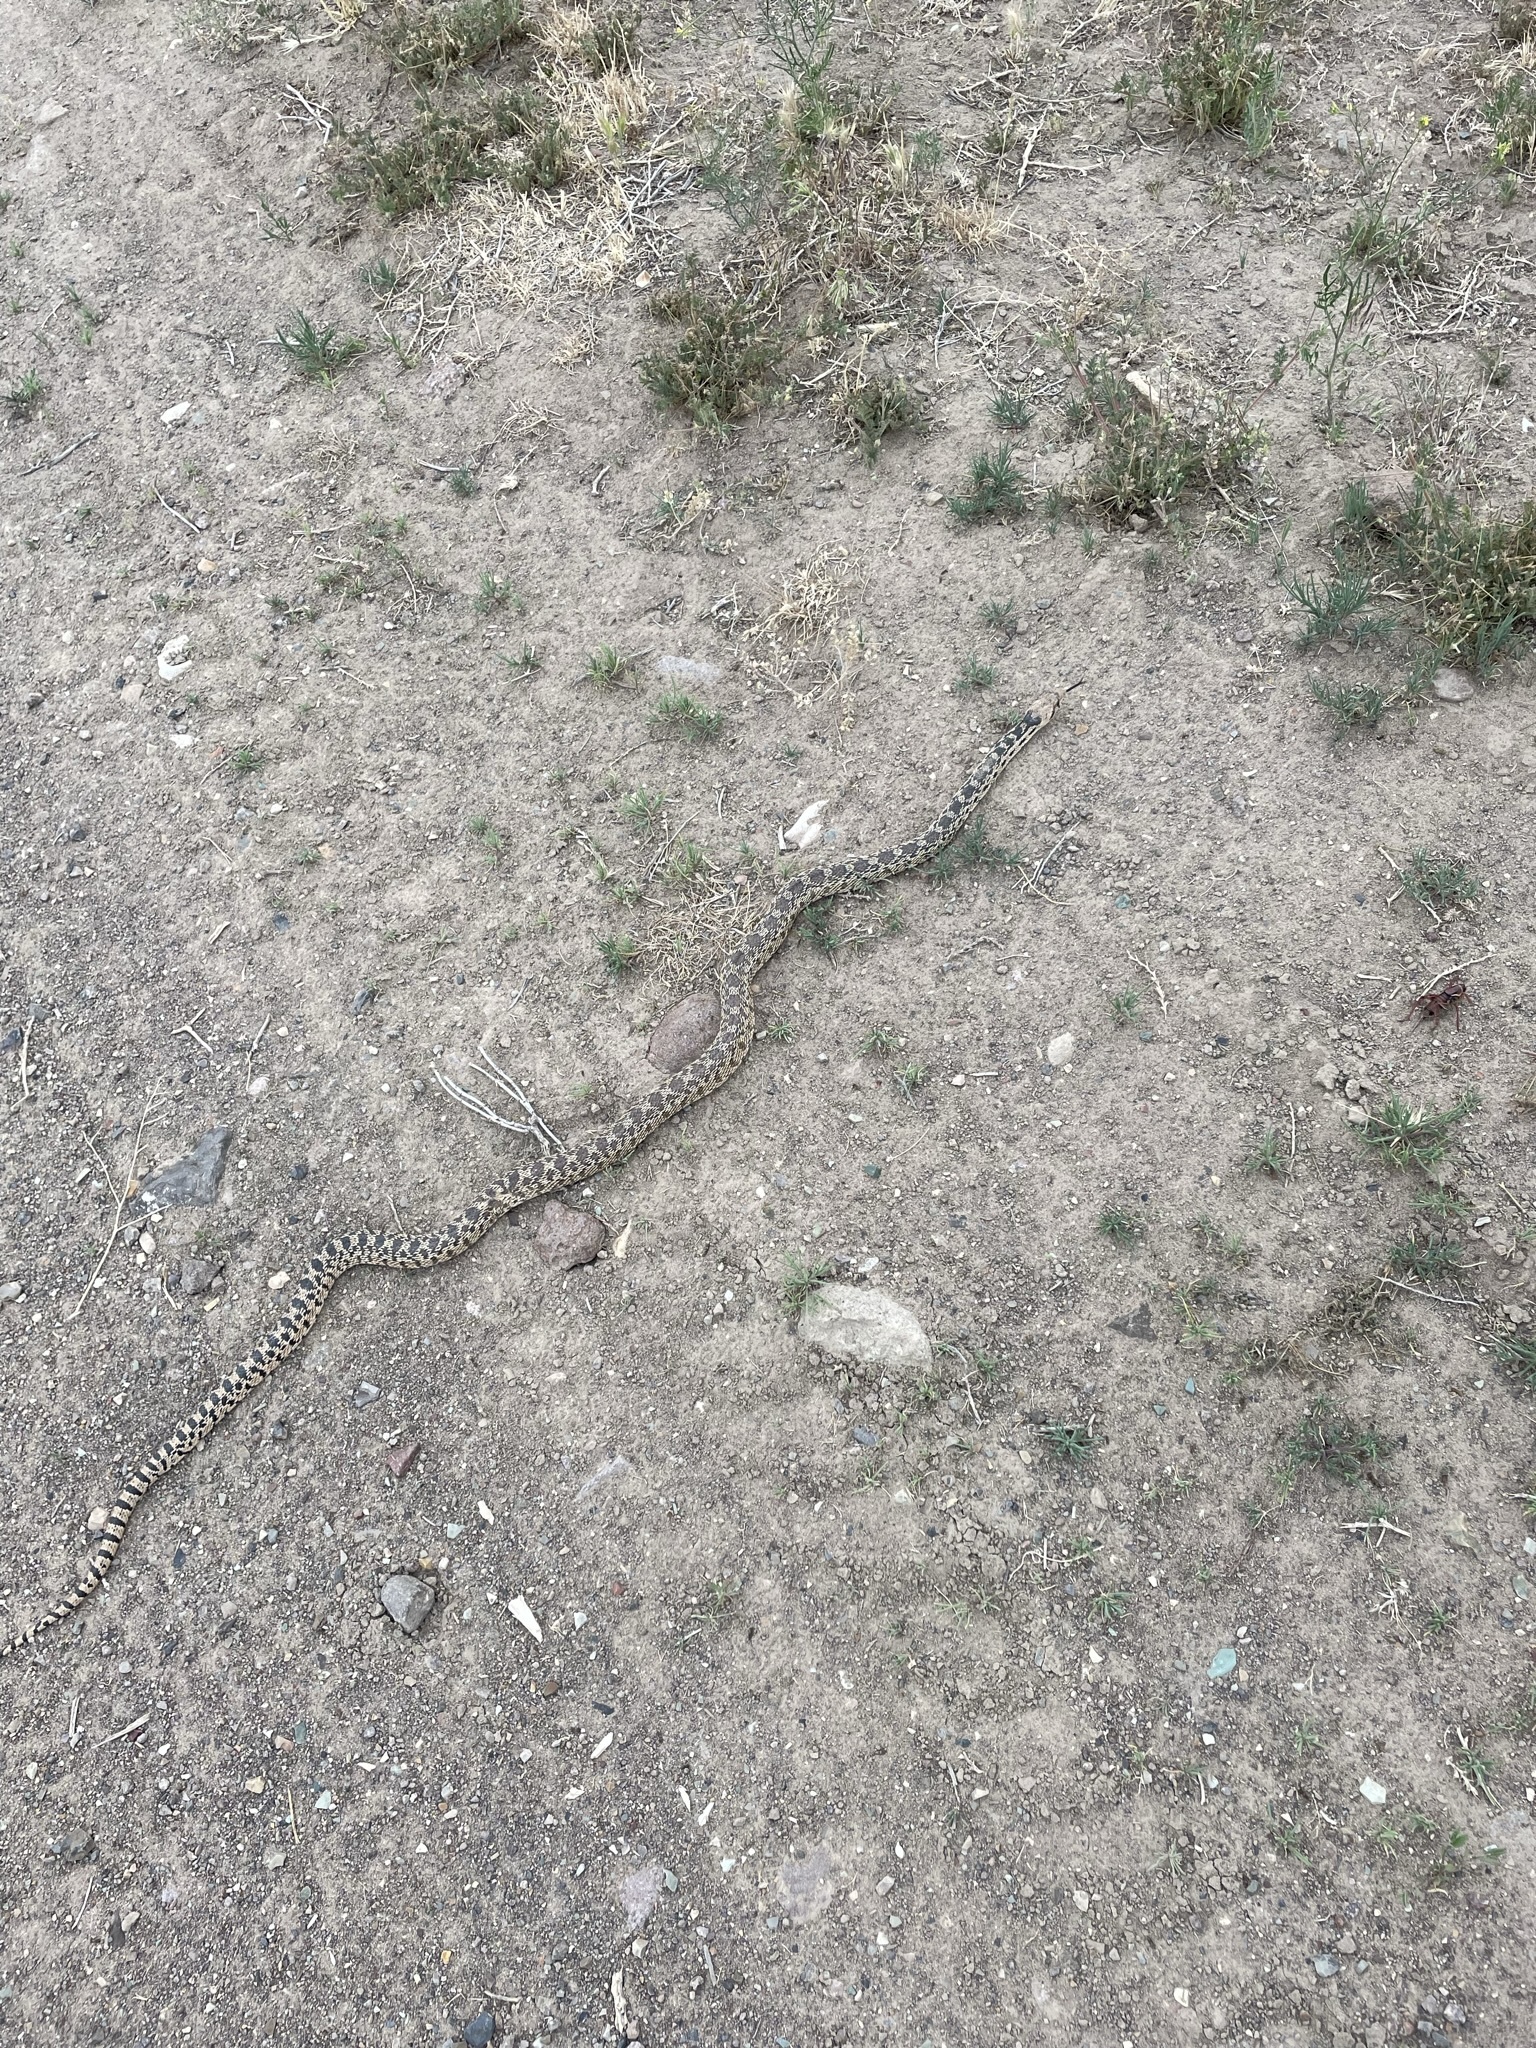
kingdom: Animalia
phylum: Chordata
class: Squamata
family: Colubridae
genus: Pituophis
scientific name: Pituophis catenifer
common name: Gopher snake
